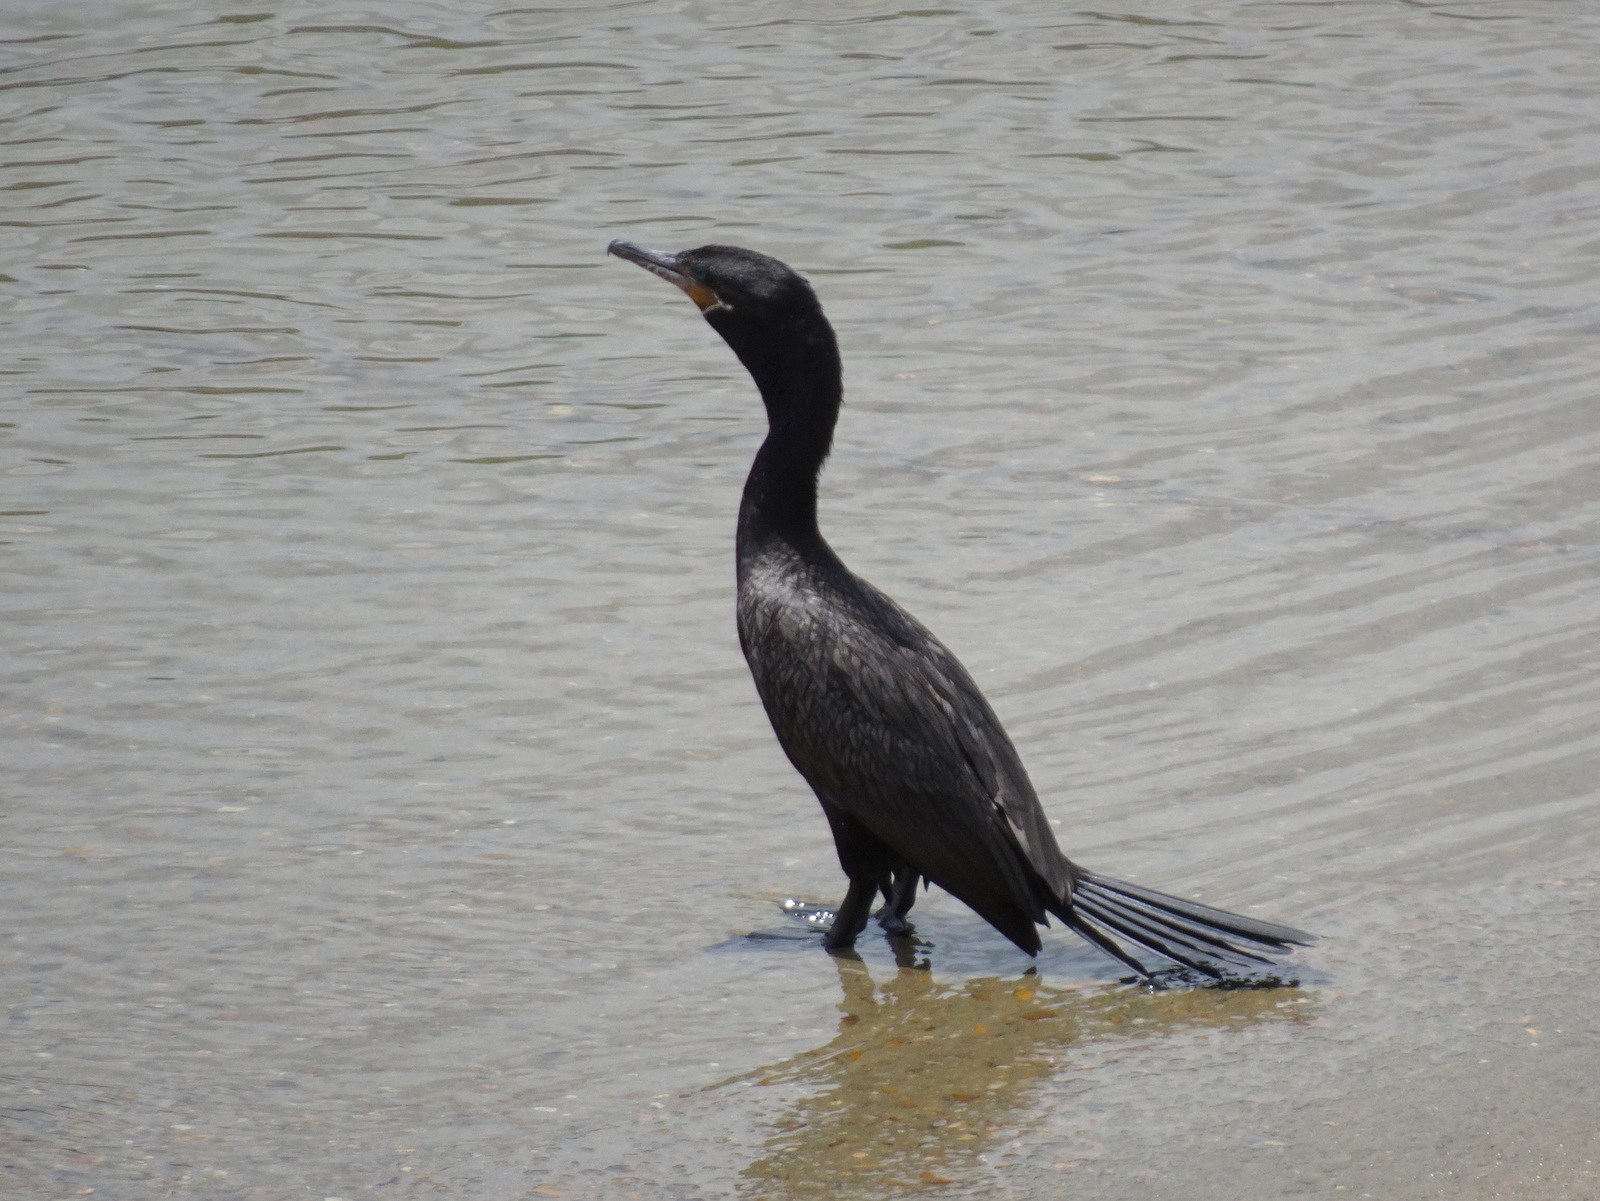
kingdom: Animalia
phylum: Chordata
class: Aves
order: Suliformes
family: Phalacrocoracidae
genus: Phalacrocorax
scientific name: Phalacrocorax brasilianus
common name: Neotropic cormorant
